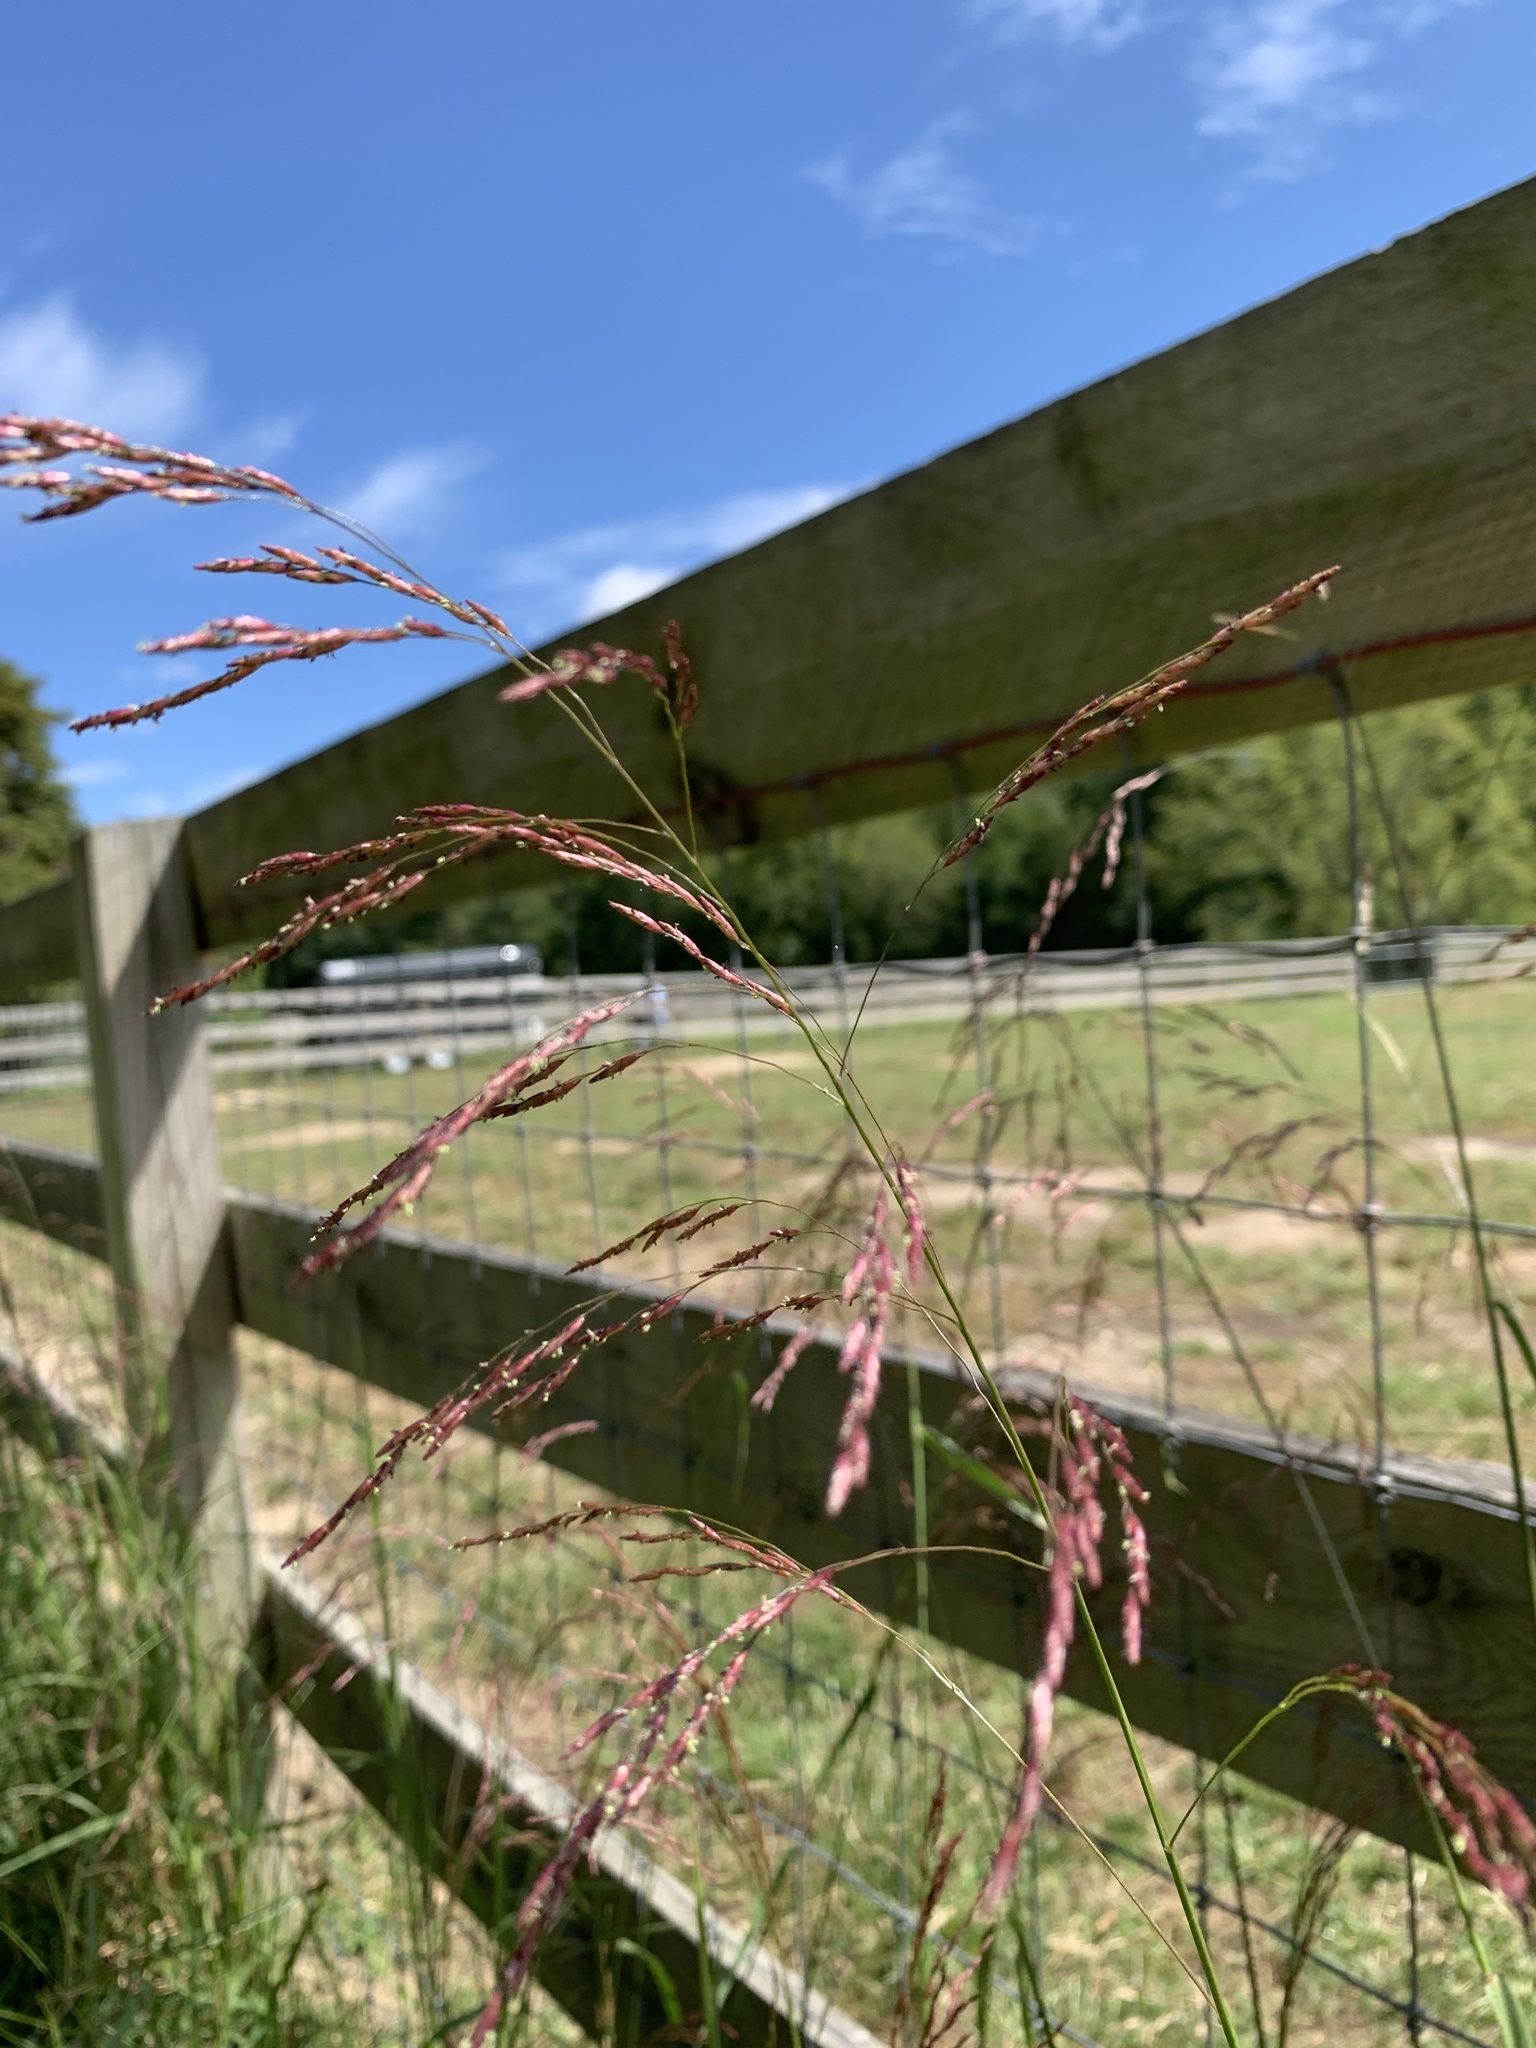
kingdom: Plantae
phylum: Tracheophyta
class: Liliopsida
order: Poales
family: Poaceae
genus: Tridens
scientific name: Tridens flavus
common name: Purpletop
